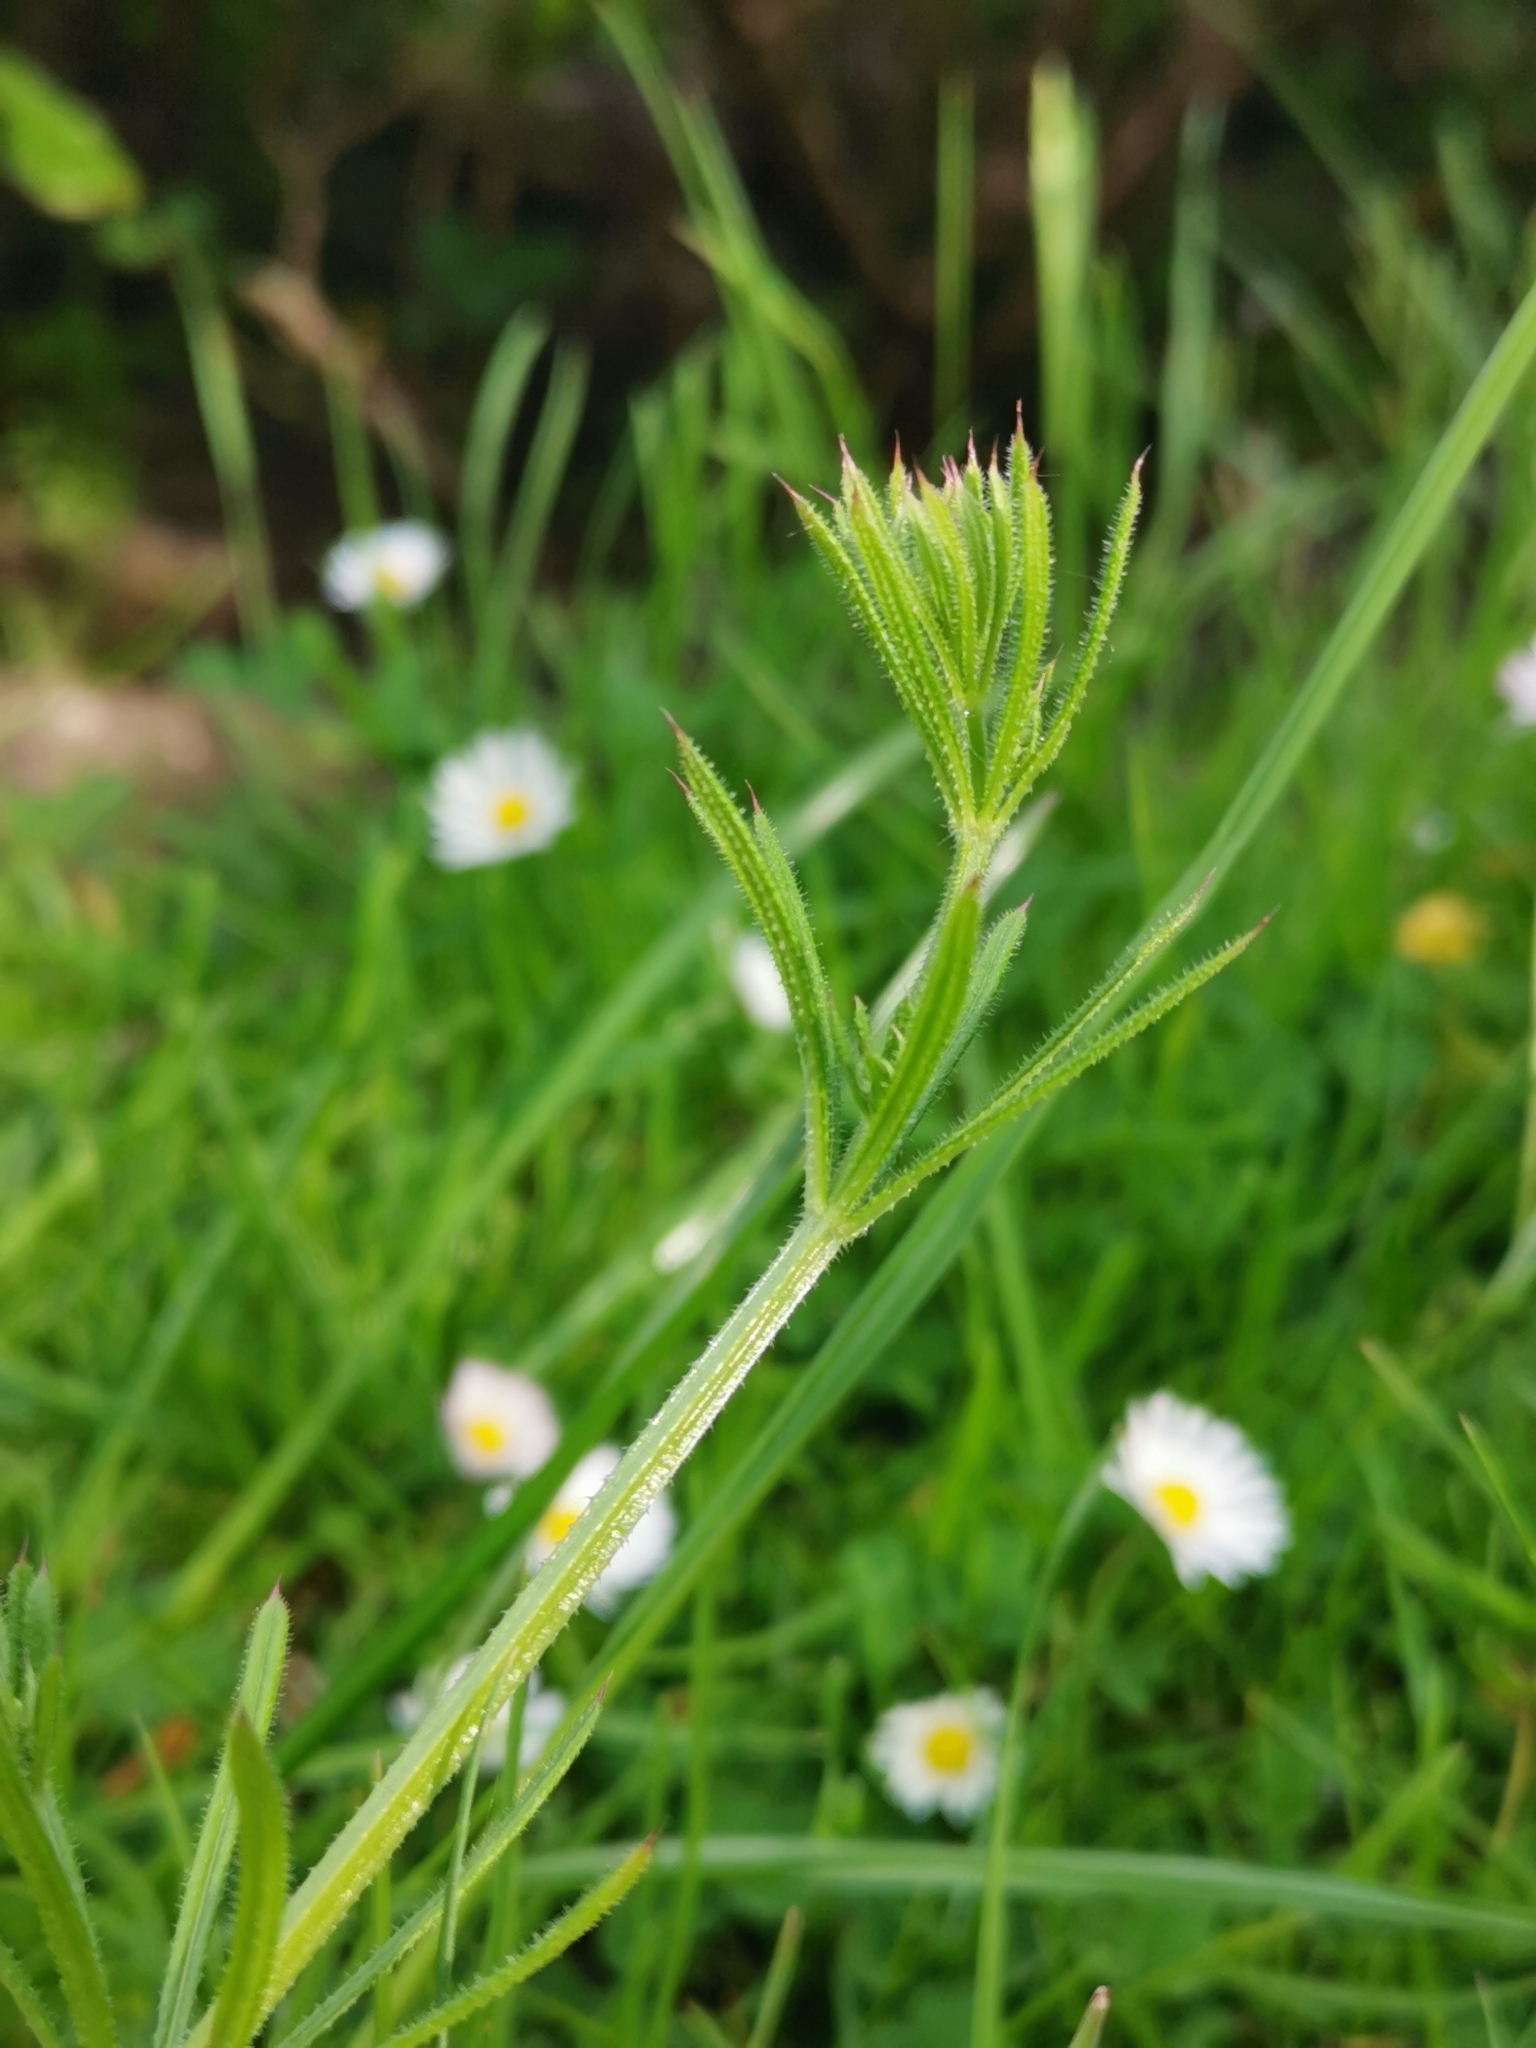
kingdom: Plantae
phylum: Tracheophyta
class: Magnoliopsida
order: Gentianales
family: Rubiaceae
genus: Galium
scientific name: Galium aparine
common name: Cleavers
